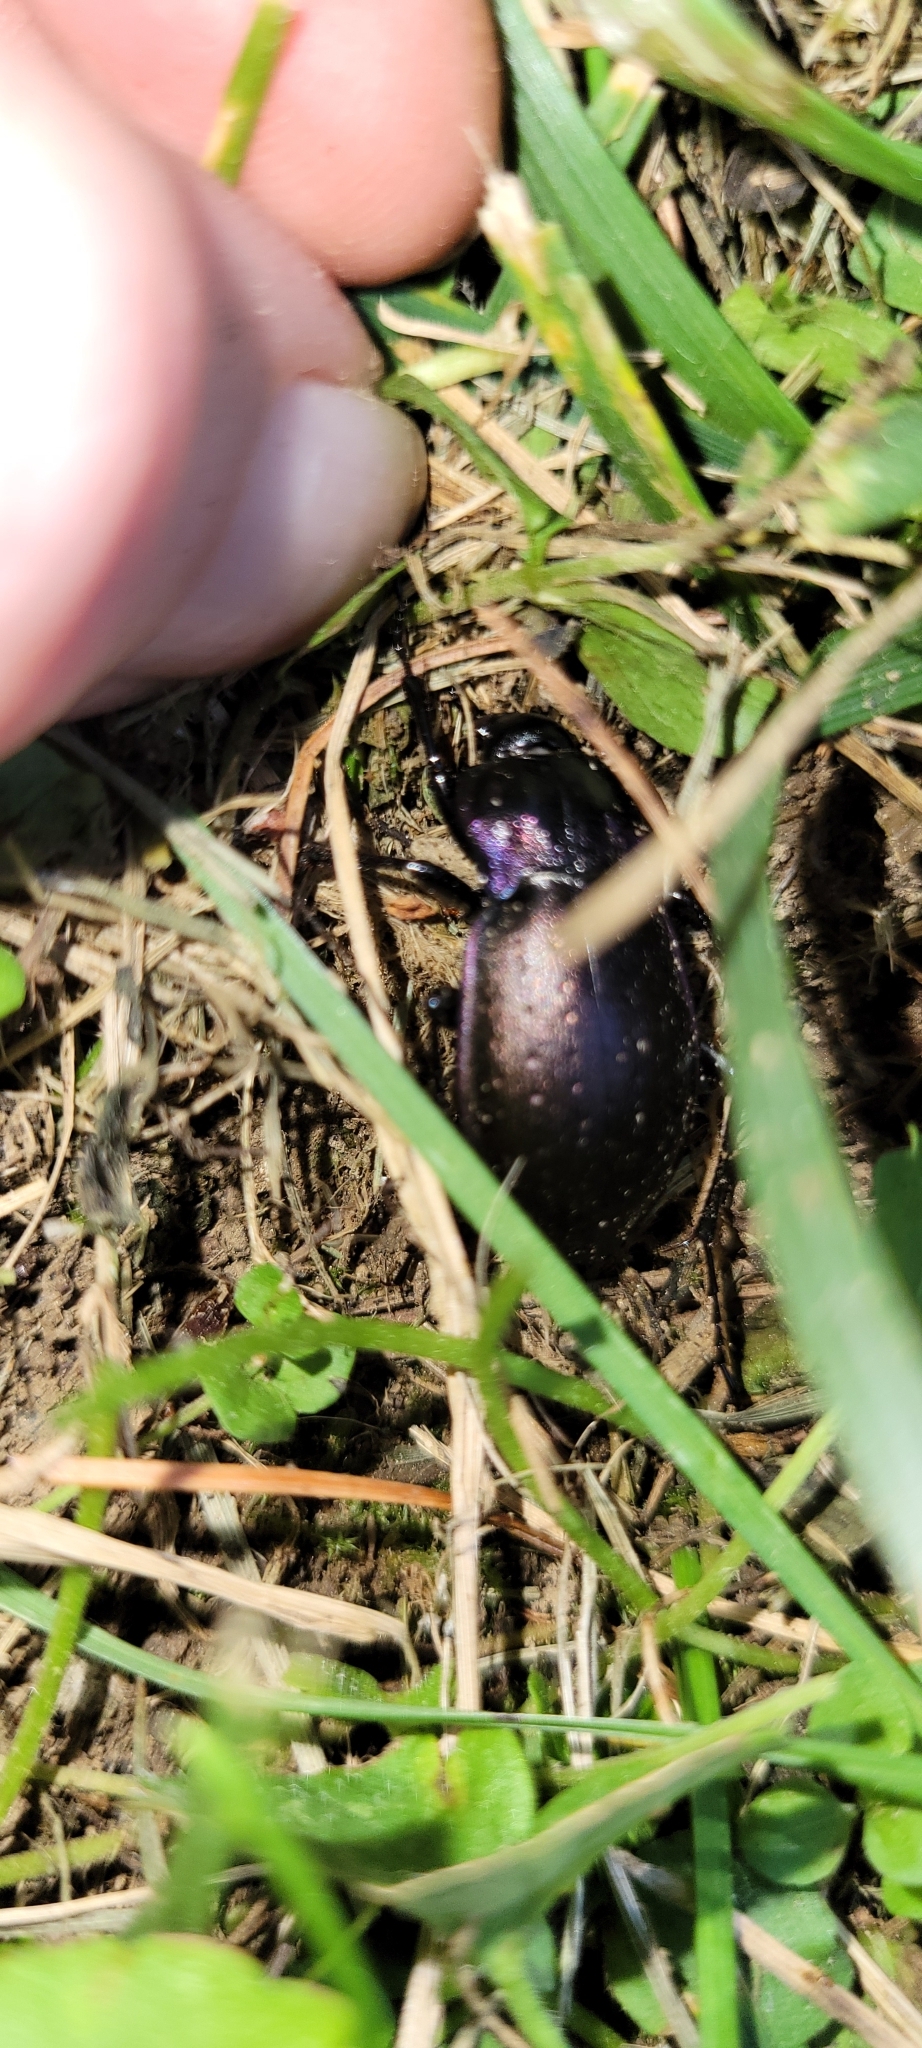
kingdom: Animalia
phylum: Arthropoda
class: Insecta
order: Coleoptera
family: Carabidae
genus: Carabus
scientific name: Carabus nemoralis
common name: European ground beetle
